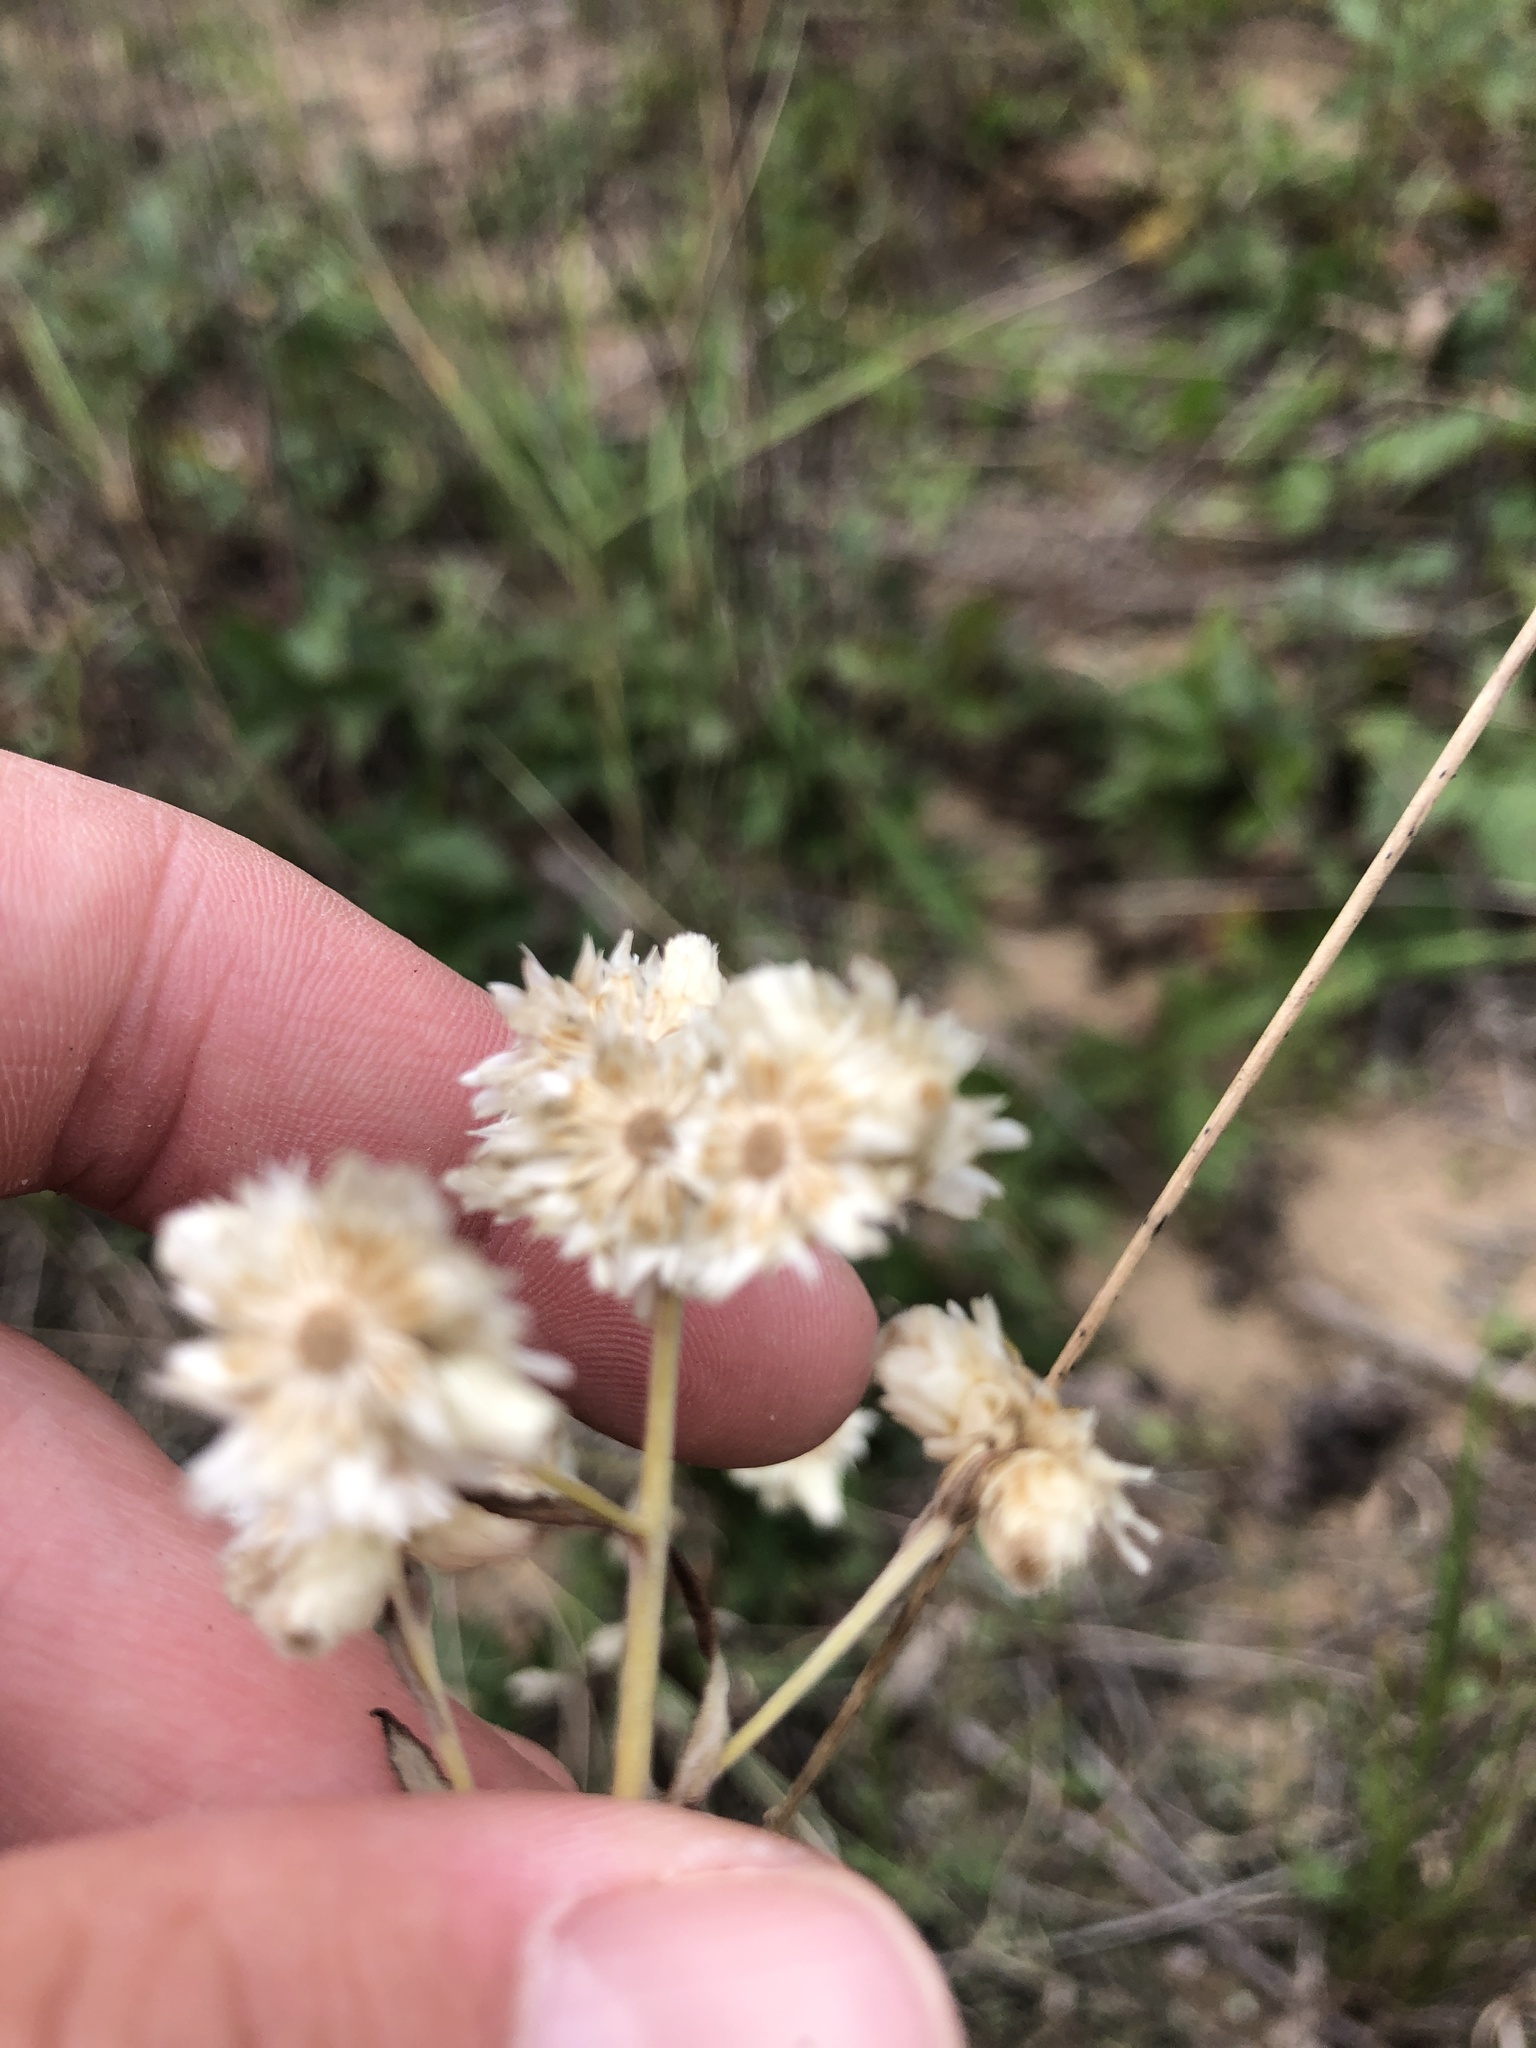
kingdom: Plantae
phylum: Tracheophyta
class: Magnoliopsida
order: Asterales
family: Asteraceae
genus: Pseudognaphalium
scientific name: Pseudognaphalium obtusifolium
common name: Eastern rabbit-tobacco
